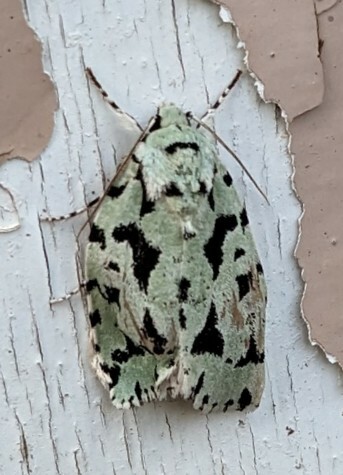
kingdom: Animalia
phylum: Arthropoda
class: Insecta
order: Lepidoptera
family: Noctuidae
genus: Acronicta
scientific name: Acronicta fallax
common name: Green marvel
